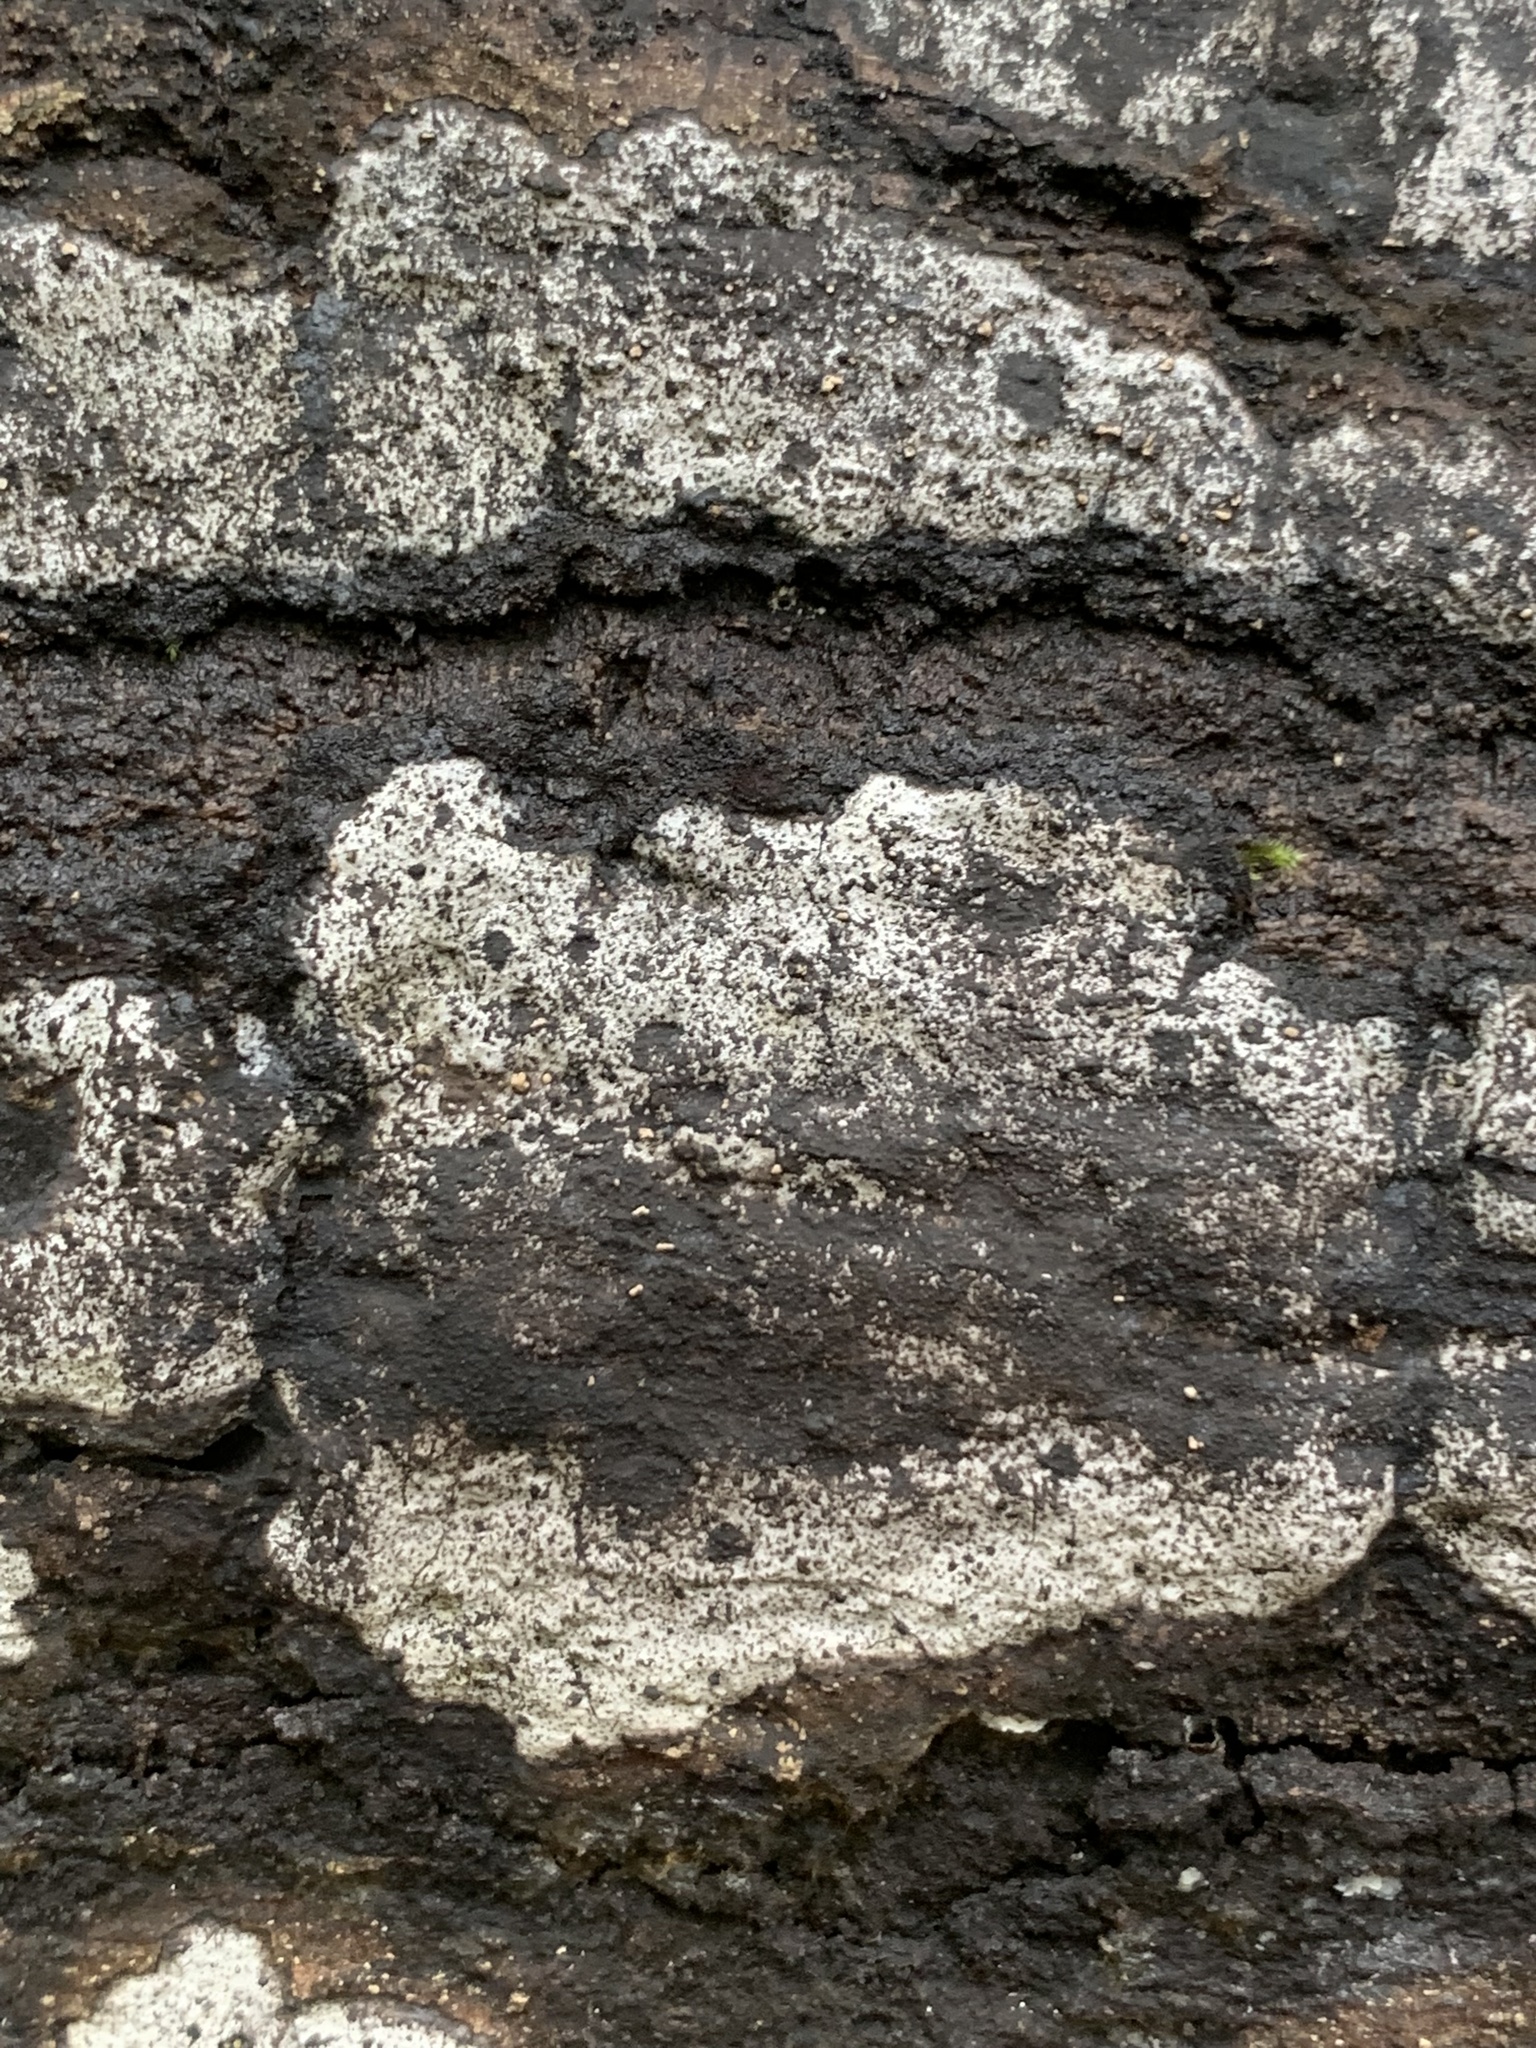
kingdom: Fungi
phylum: Ascomycota
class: Sordariomycetes
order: Xylariales
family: Graphostromataceae
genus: Biscogniauxia
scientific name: Biscogniauxia atropunctata
